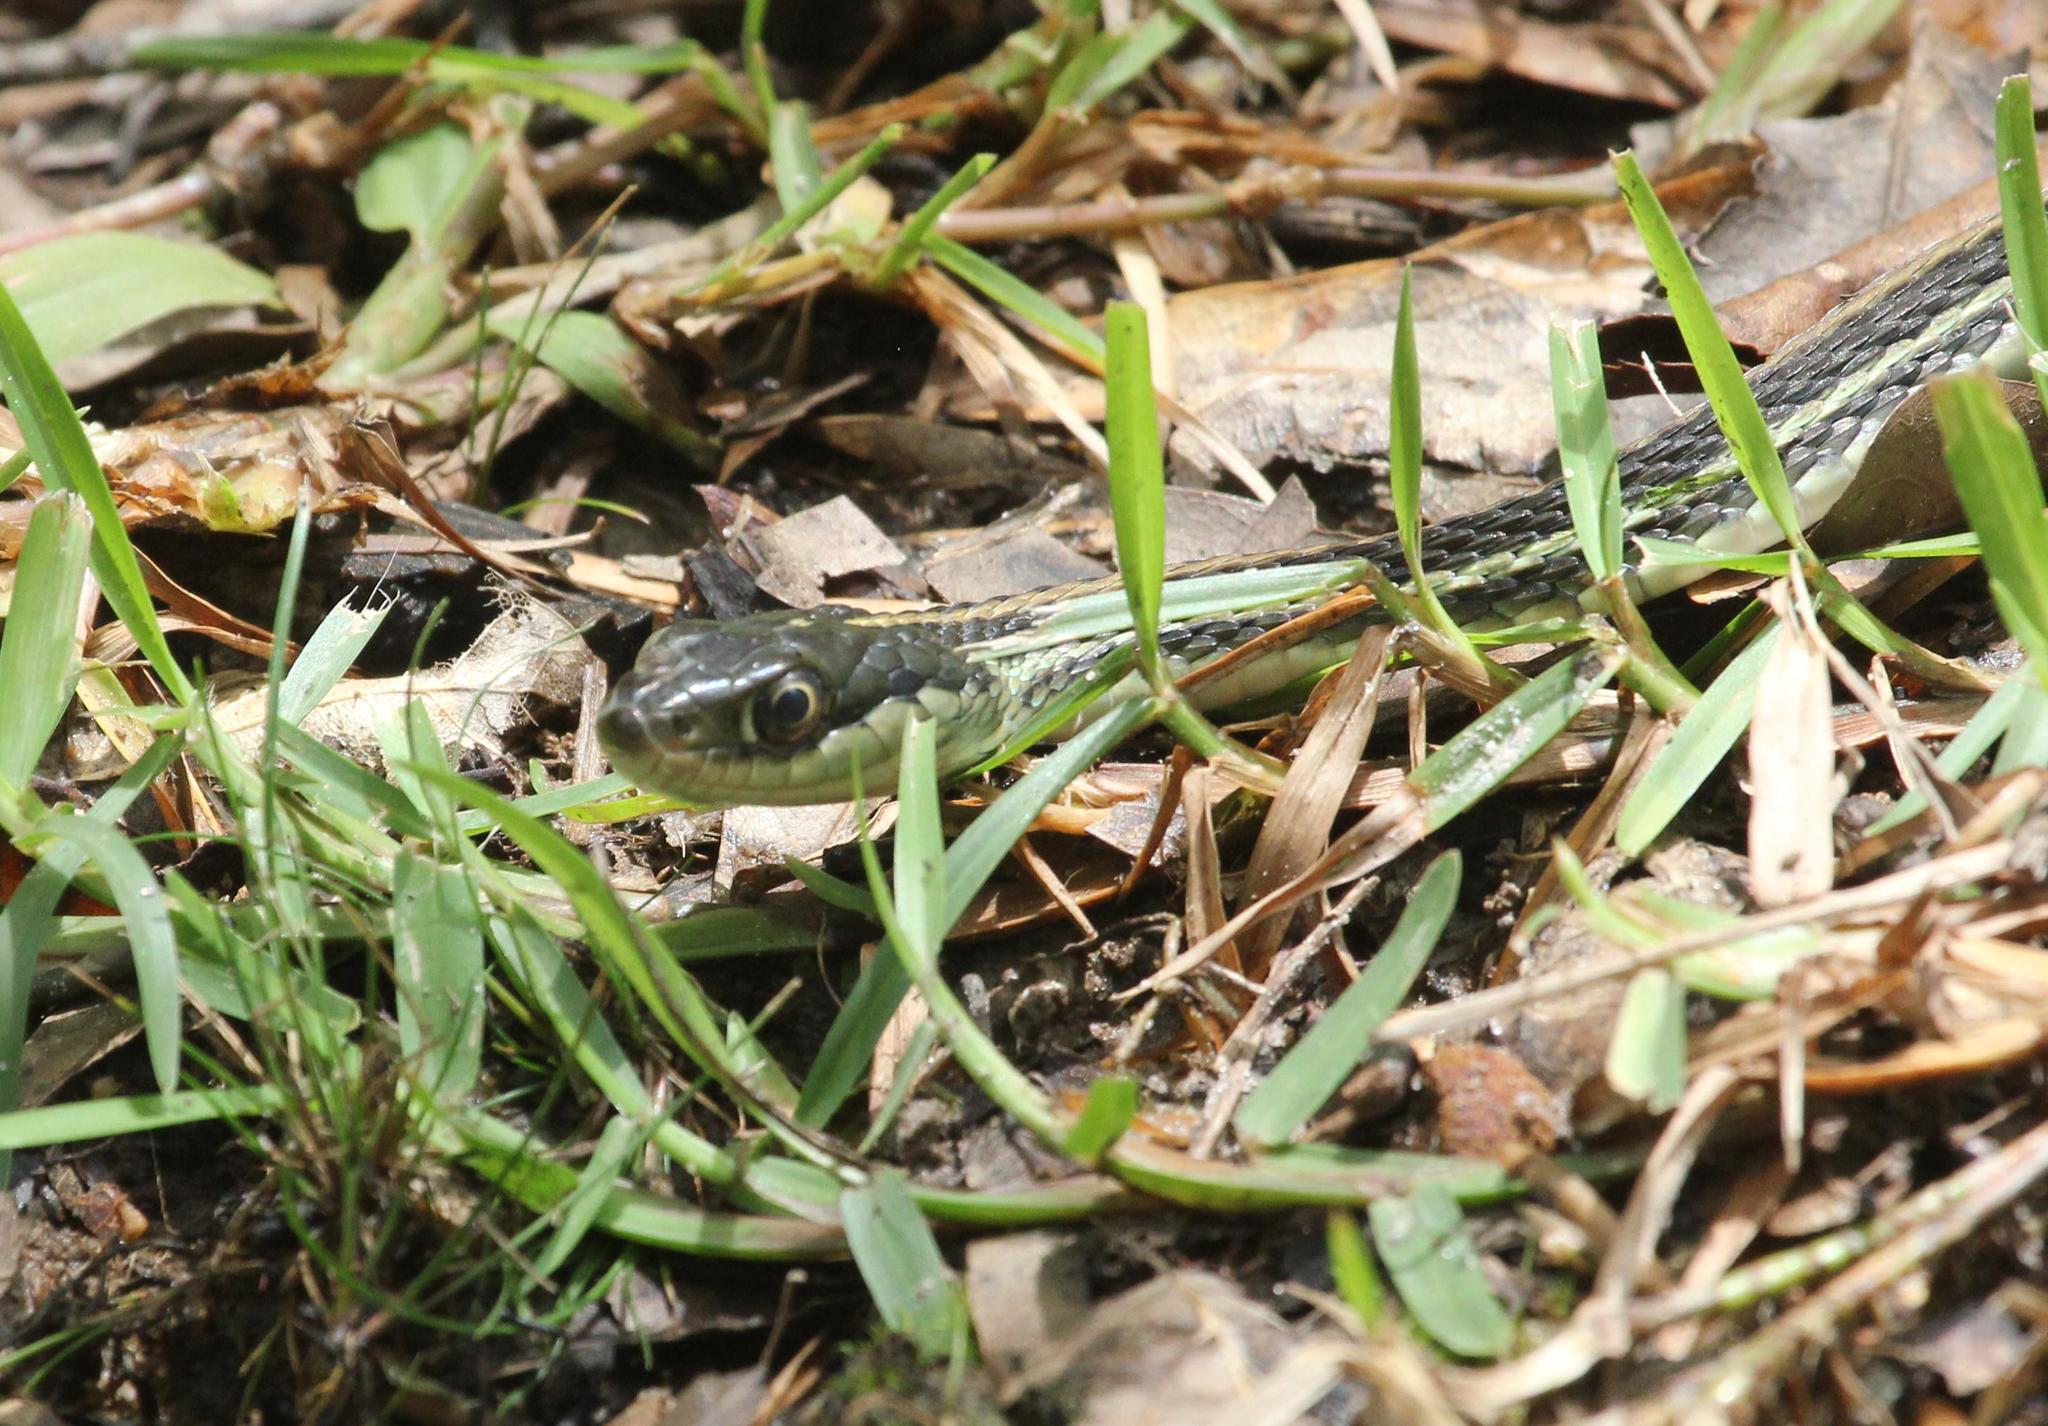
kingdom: Animalia
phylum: Chordata
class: Squamata
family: Colubridae
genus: Thamnophis
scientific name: Thamnophis saurita
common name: Eastern ribbonsnake
